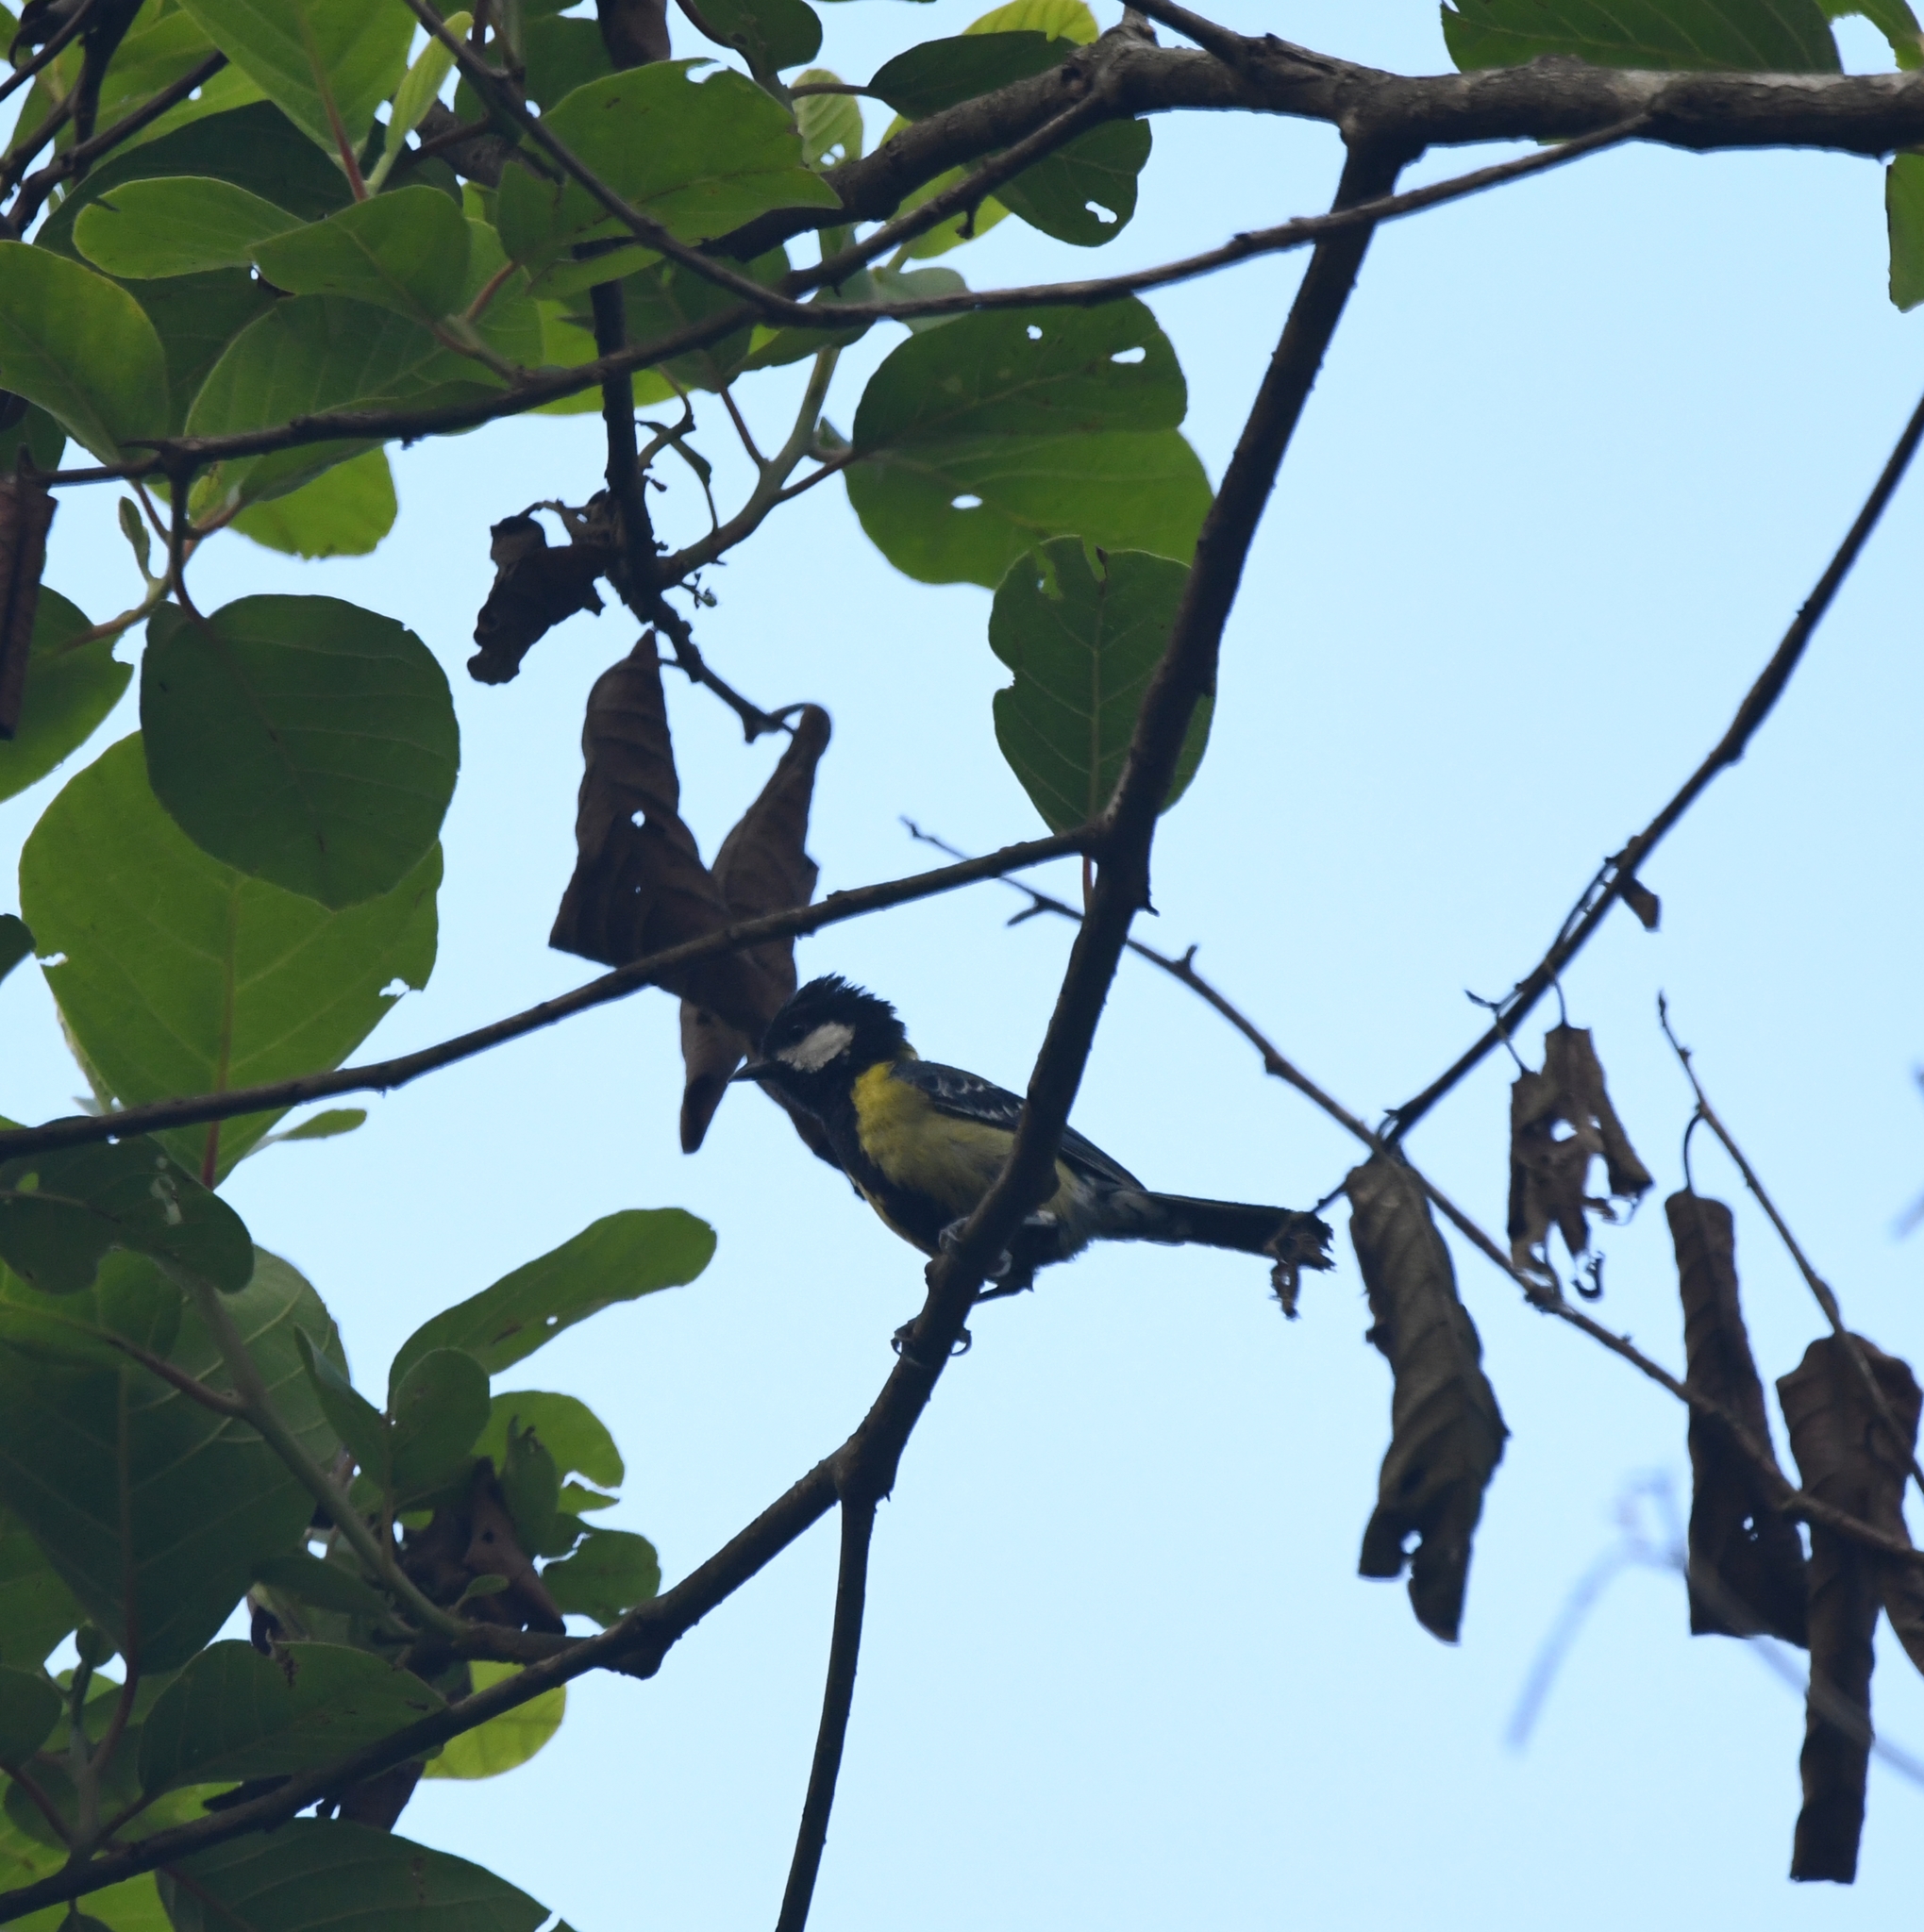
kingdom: Animalia
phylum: Chordata
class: Aves
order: Passeriformes
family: Paridae
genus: Parus
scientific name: Parus monticolus
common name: Green-backed tit
